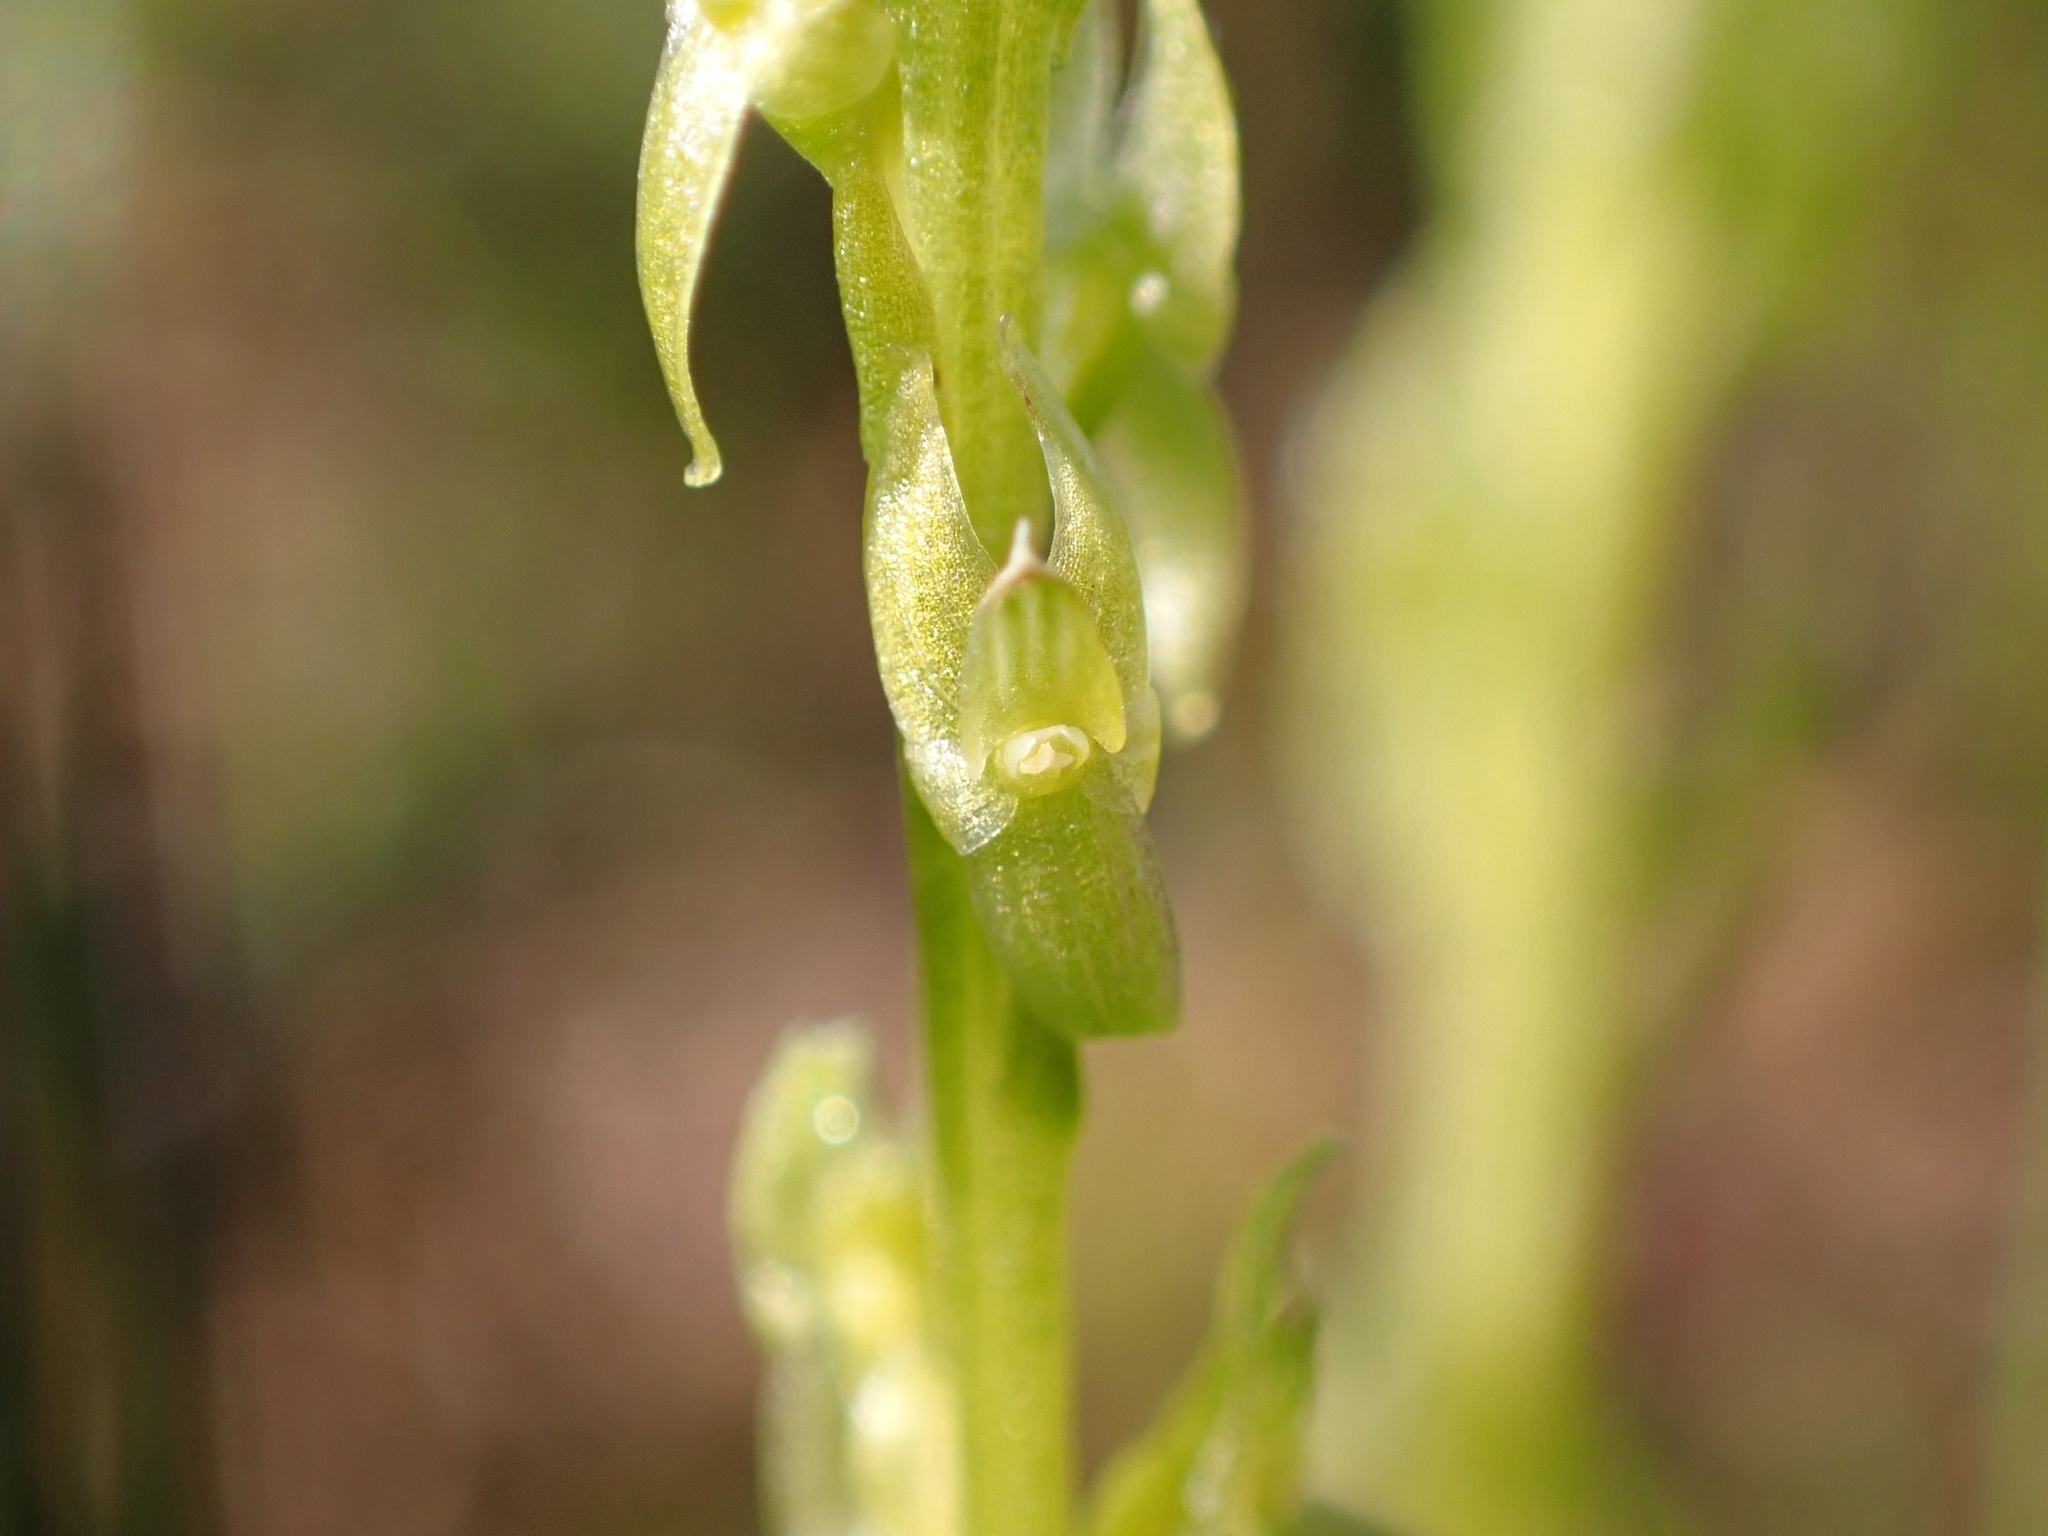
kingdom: Plantae
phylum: Tracheophyta
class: Liliopsida
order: Asparagales
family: Orchidaceae
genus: Hammarbya
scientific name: Hammarbya paludosa
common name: Bog orchid
